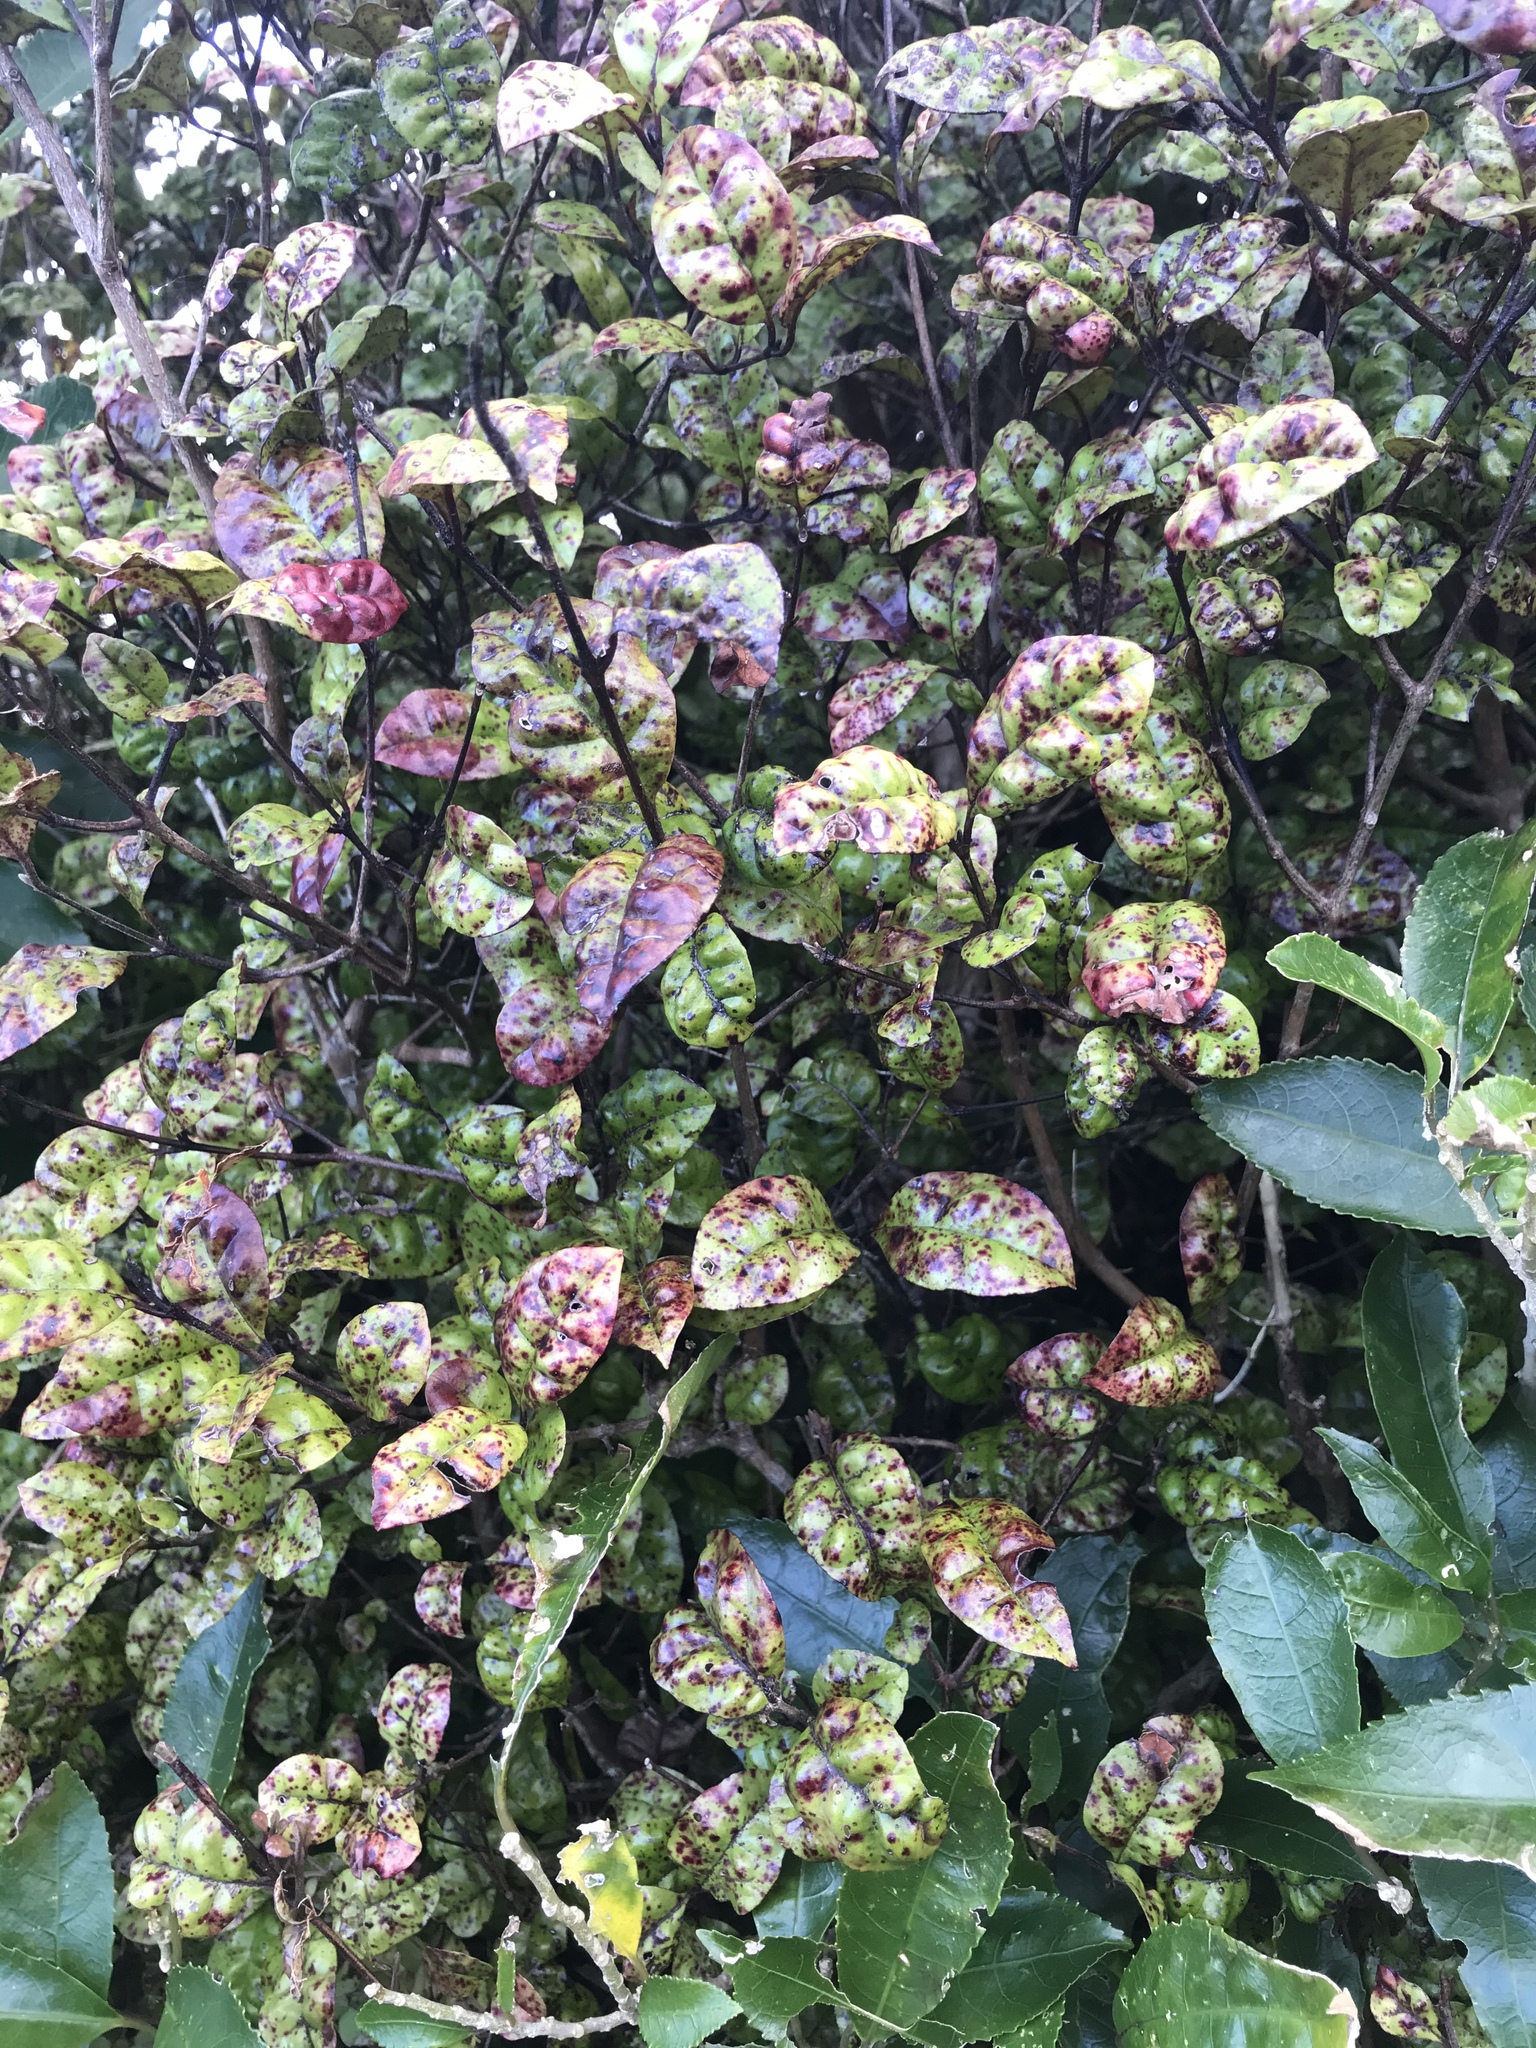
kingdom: Plantae
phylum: Tracheophyta
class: Magnoliopsida
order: Myrtales
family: Myrtaceae
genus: Lophomyrtus
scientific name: Lophomyrtus bullata
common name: Rama rama
